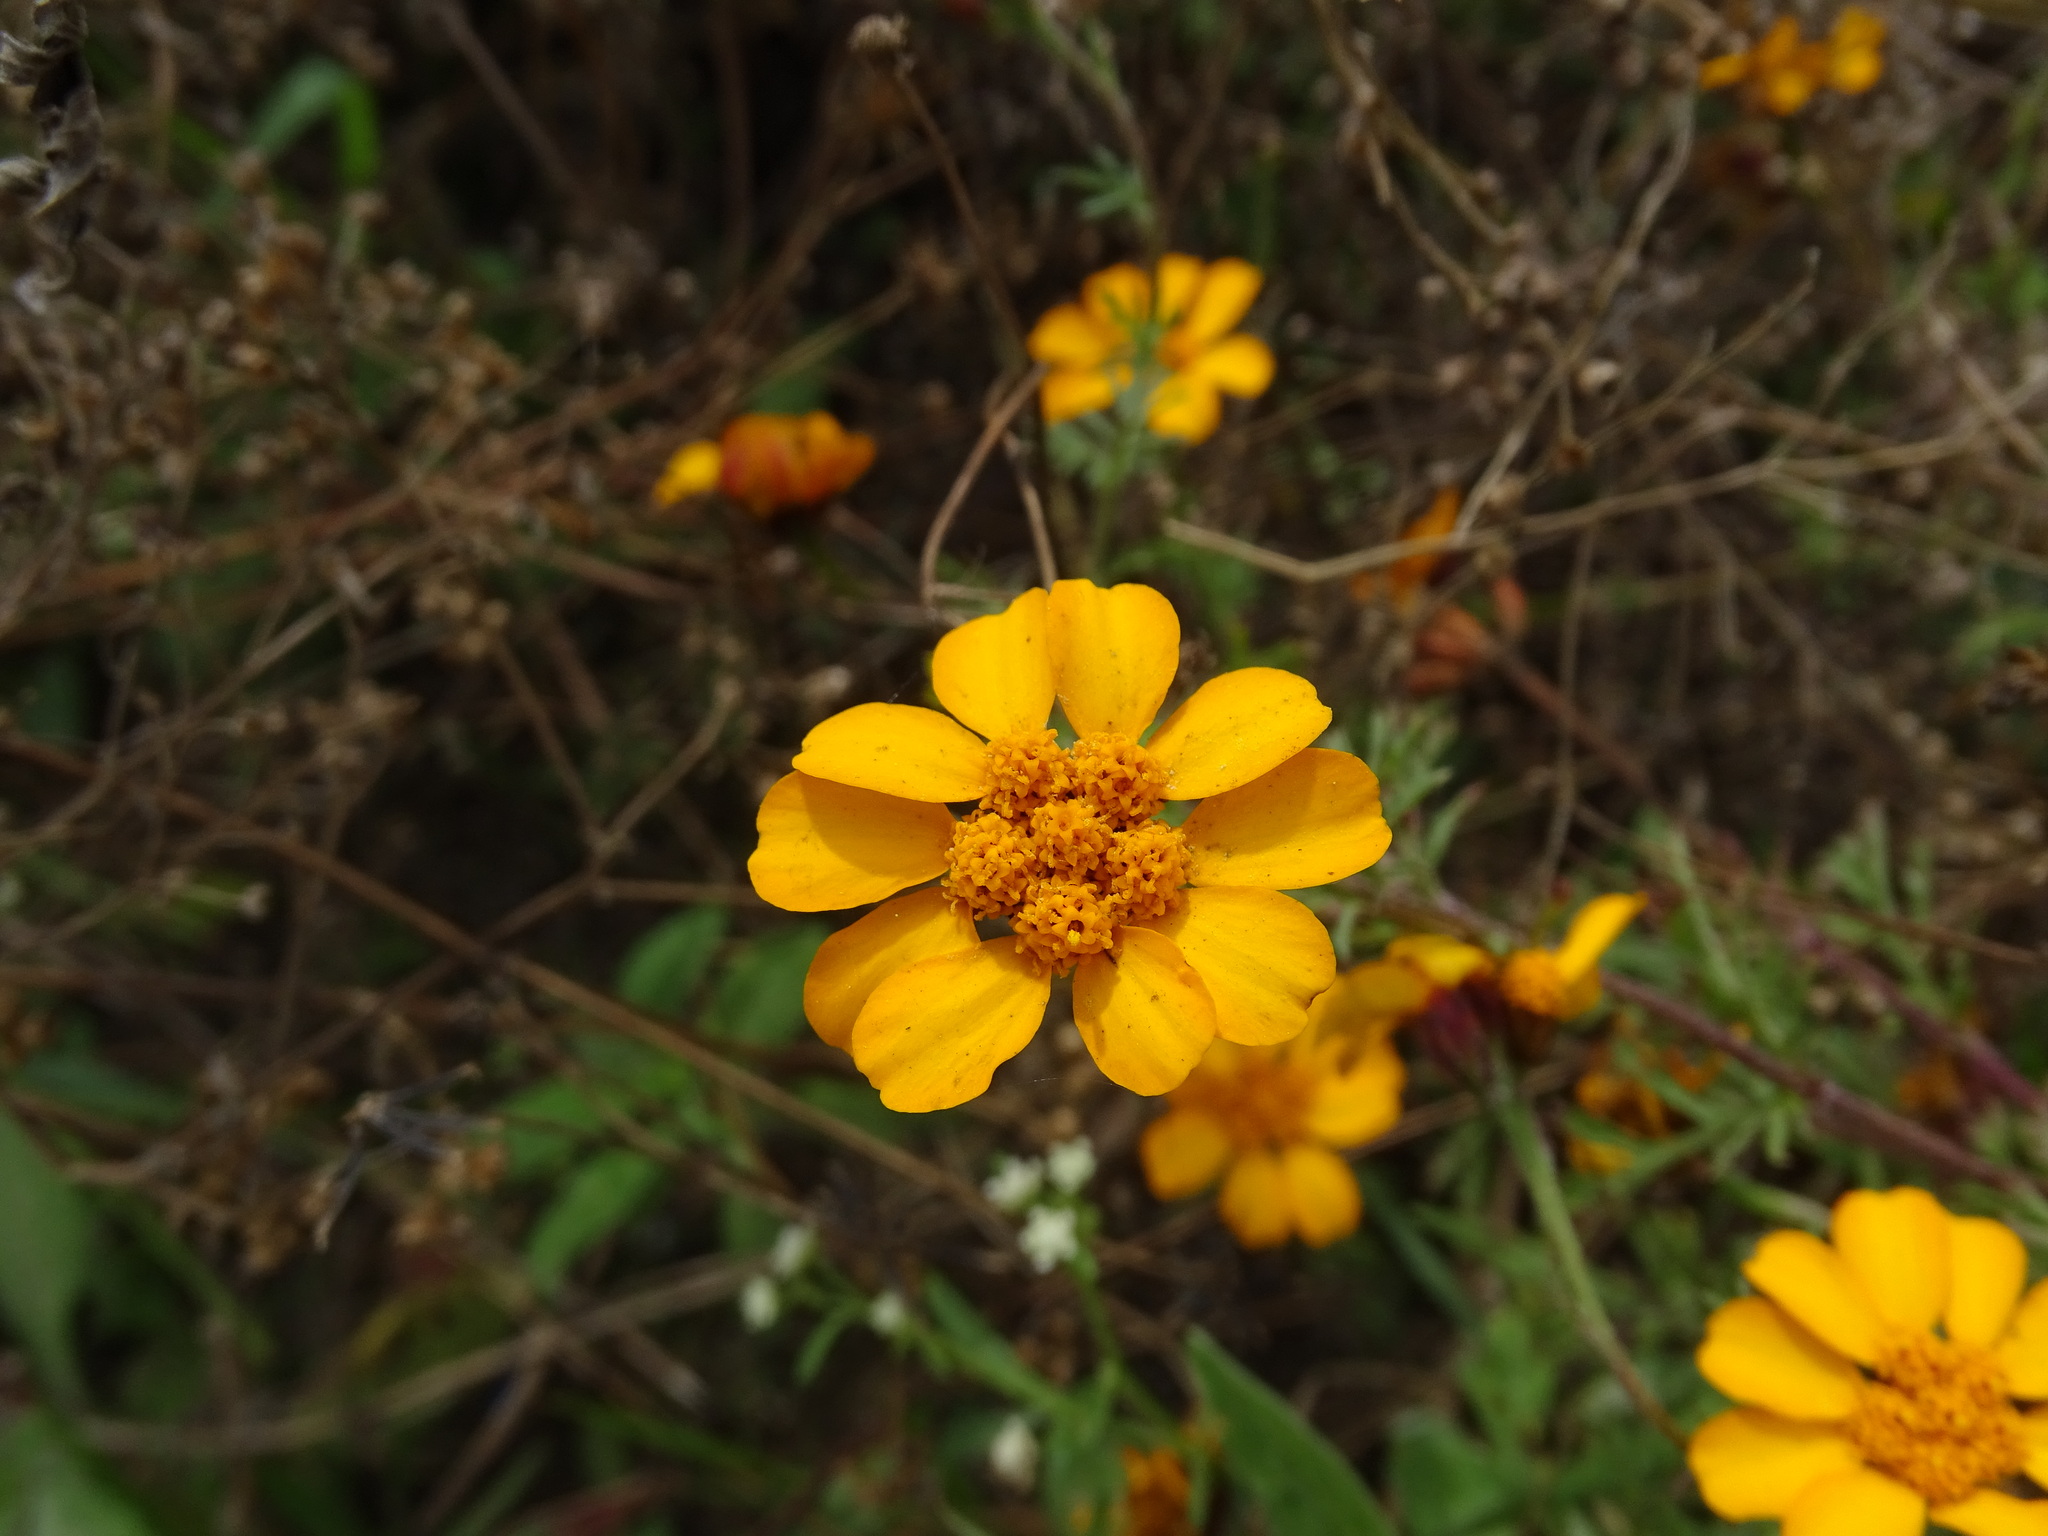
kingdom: Plantae
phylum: Tracheophyta
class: Magnoliopsida
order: Asterales
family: Asteraceae
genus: Dyssodia
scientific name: Dyssodia decipiens
